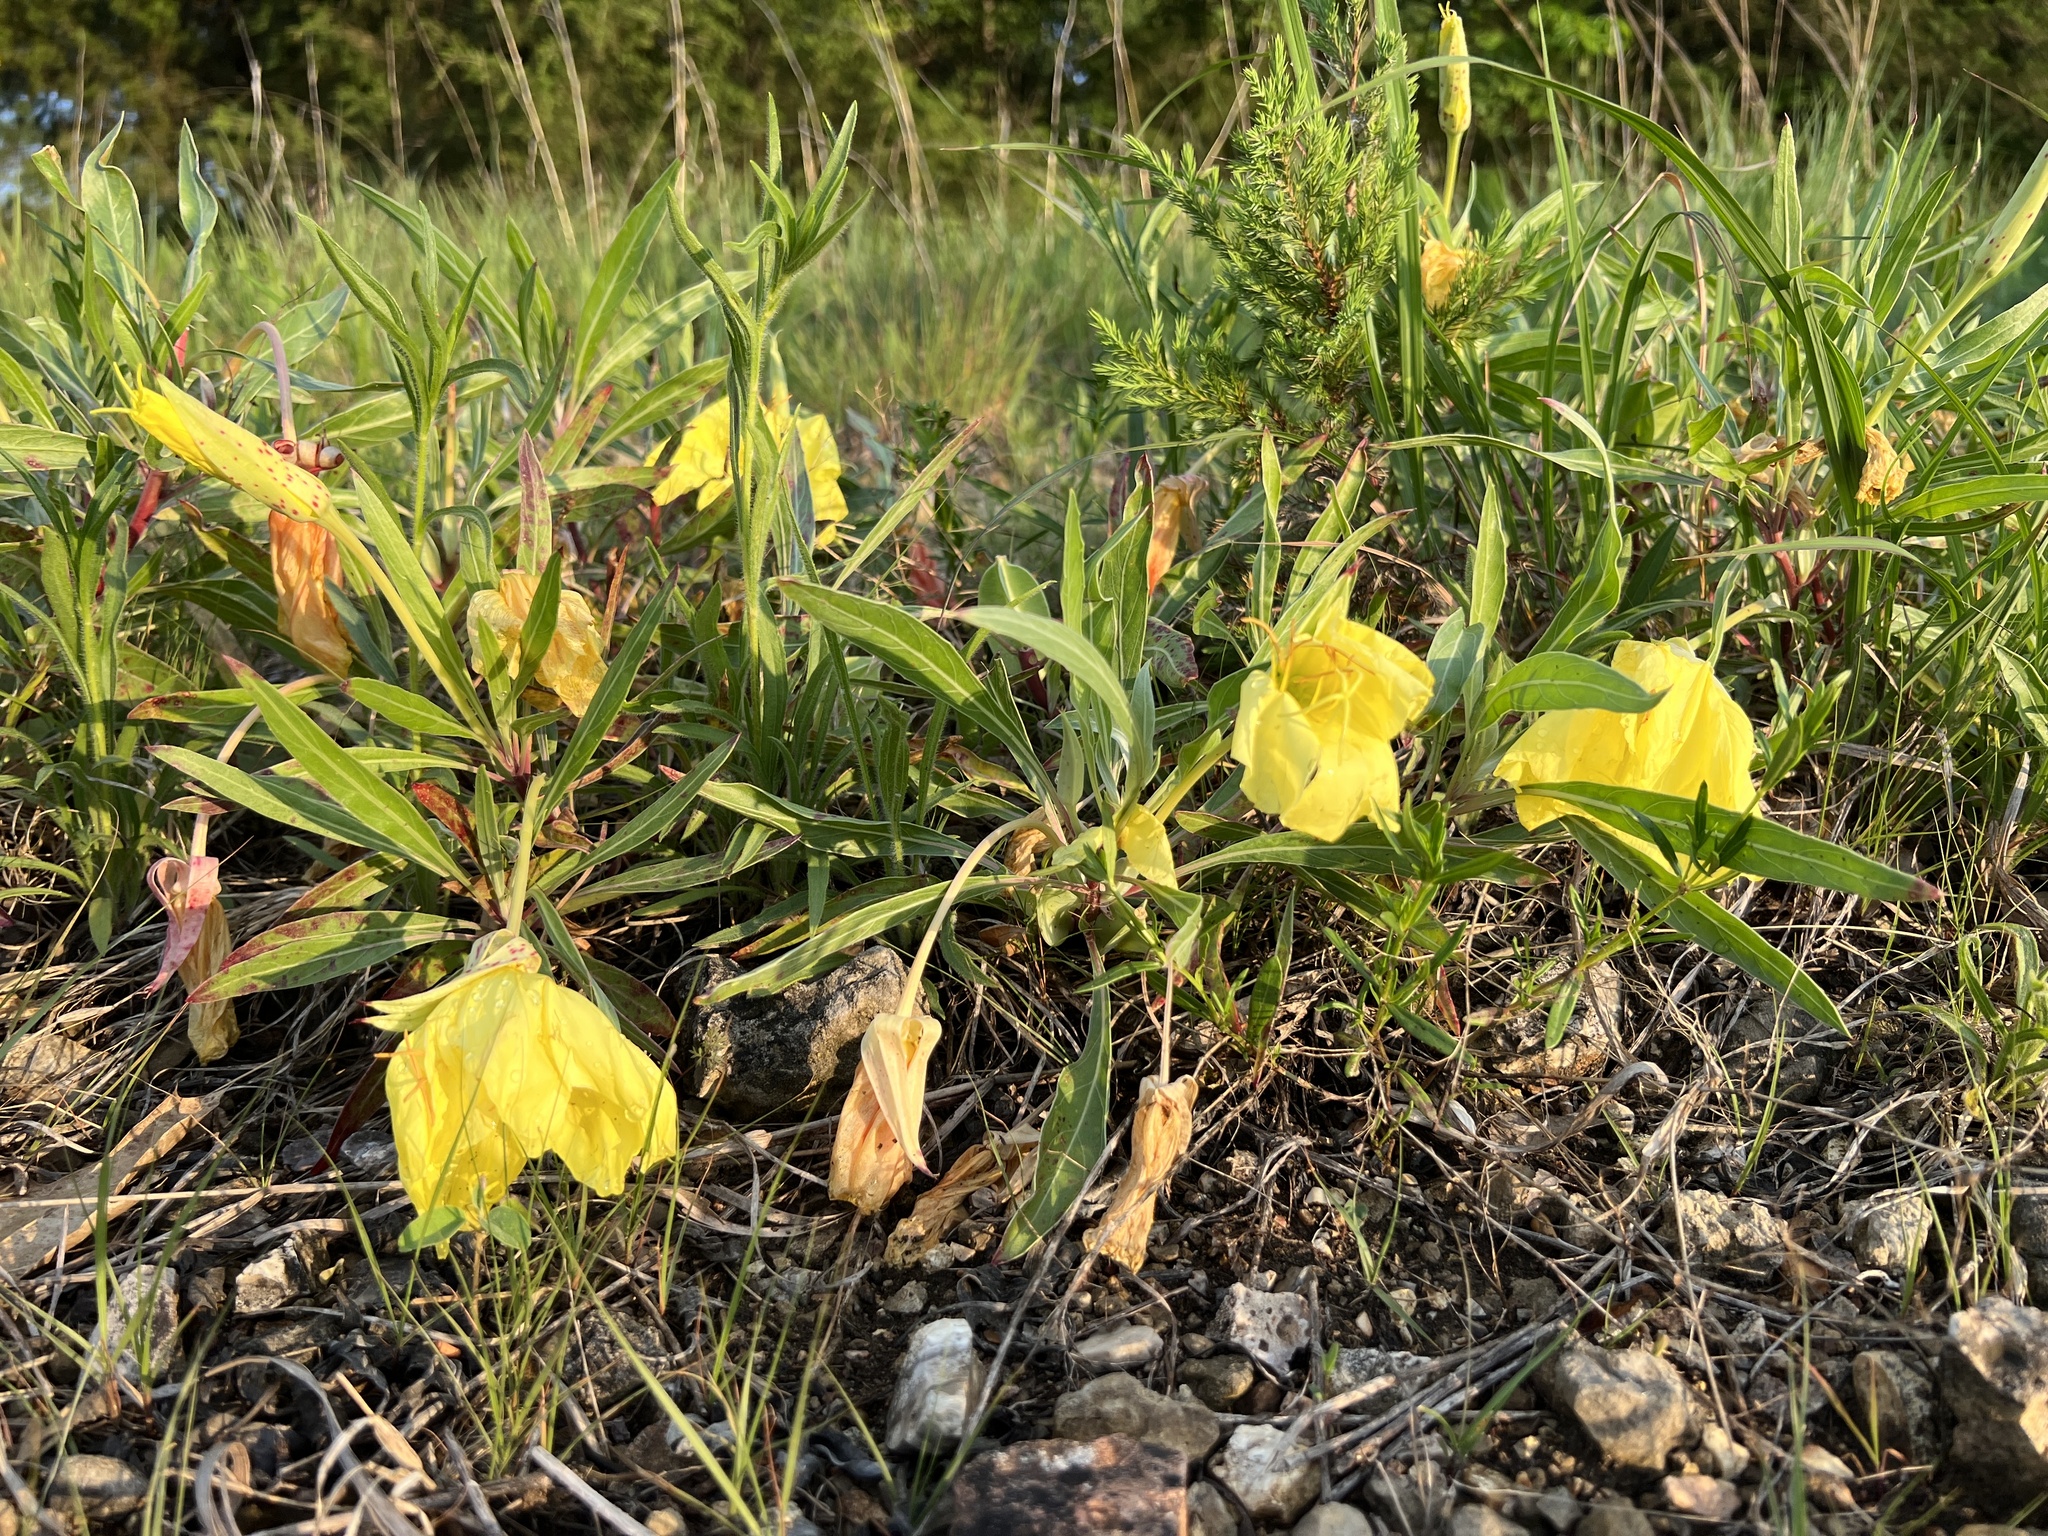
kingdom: Plantae
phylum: Tracheophyta
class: Magnoliopsida
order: Myrtales
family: Onagraceae
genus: Oenothera
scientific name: Oenothera macrocarpa
